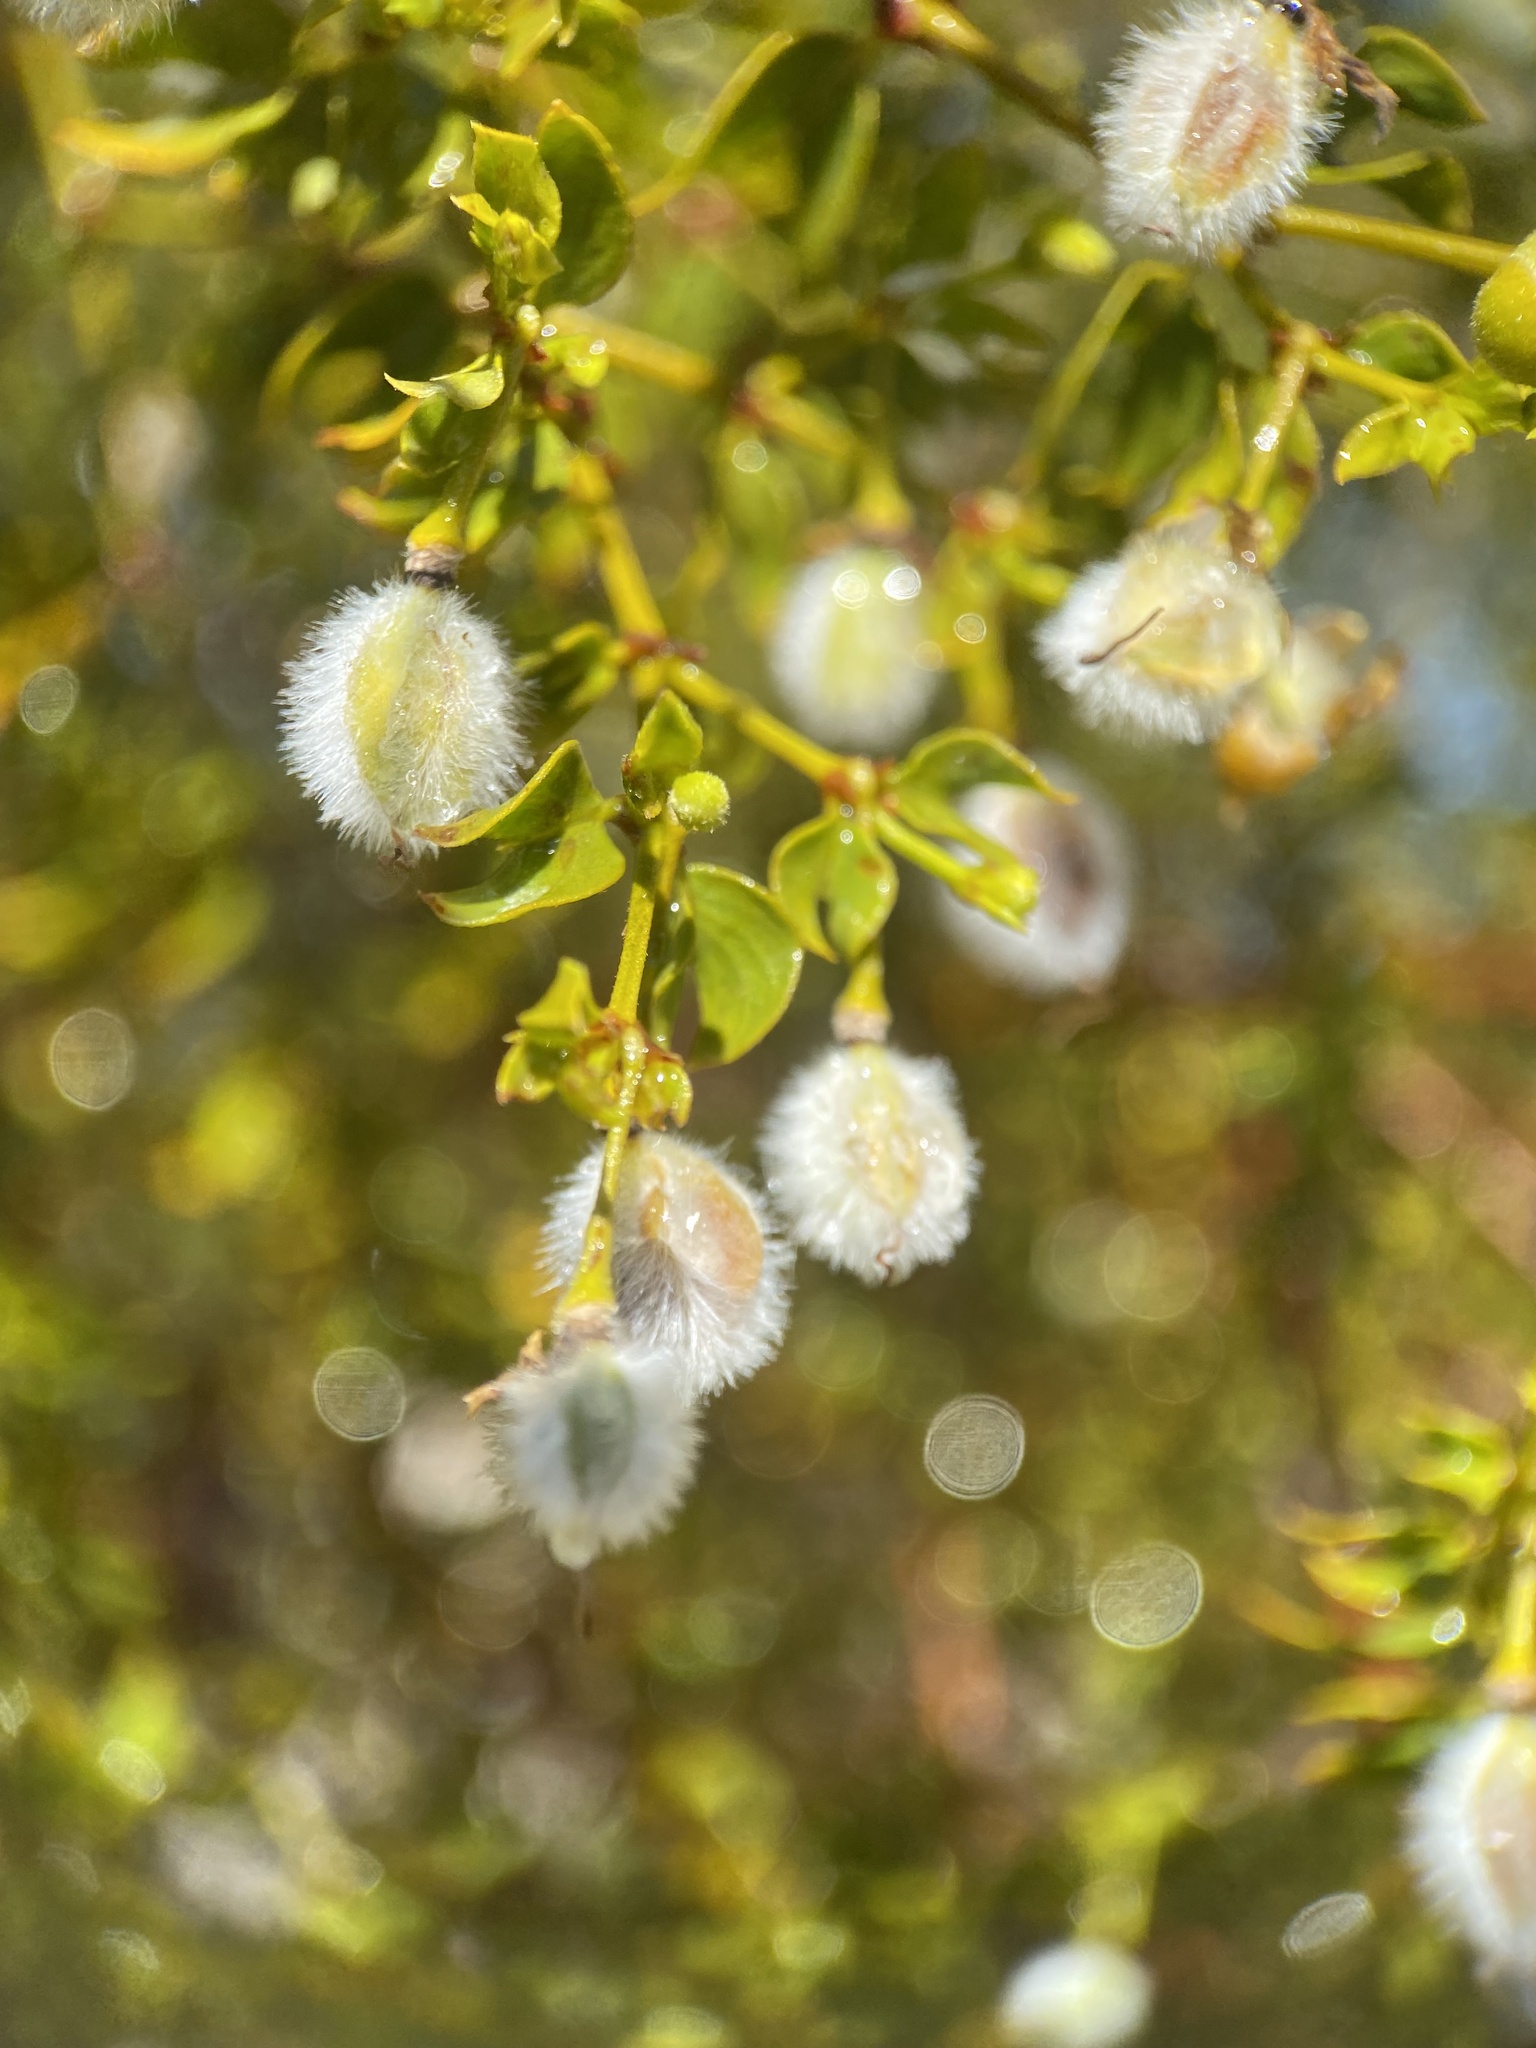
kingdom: Plantae
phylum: Tracheophyta
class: Magnoliopsida
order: Zygophyllales
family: Zygophyllaceae
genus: Larrea
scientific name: Larrea tridentata
